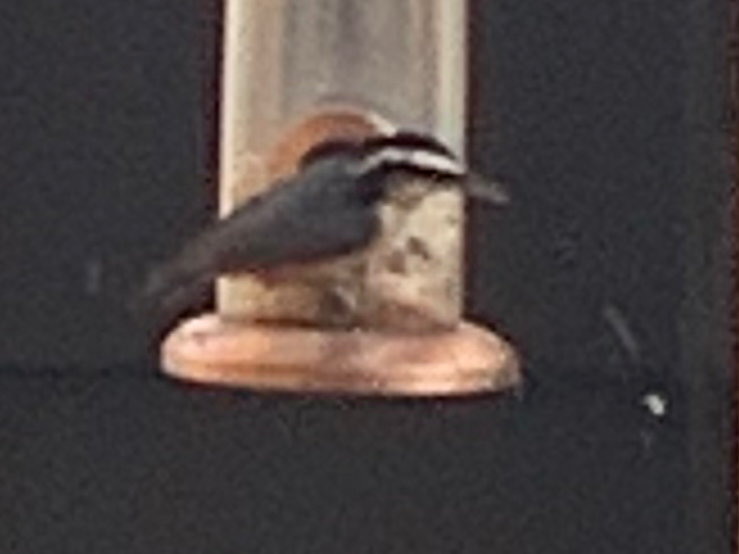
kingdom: Animalia
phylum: Chordata
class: Aves
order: Passeriformes
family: Sittidae
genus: Sitta
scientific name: Sitta canadensis
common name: Red-breasted nuthatch
